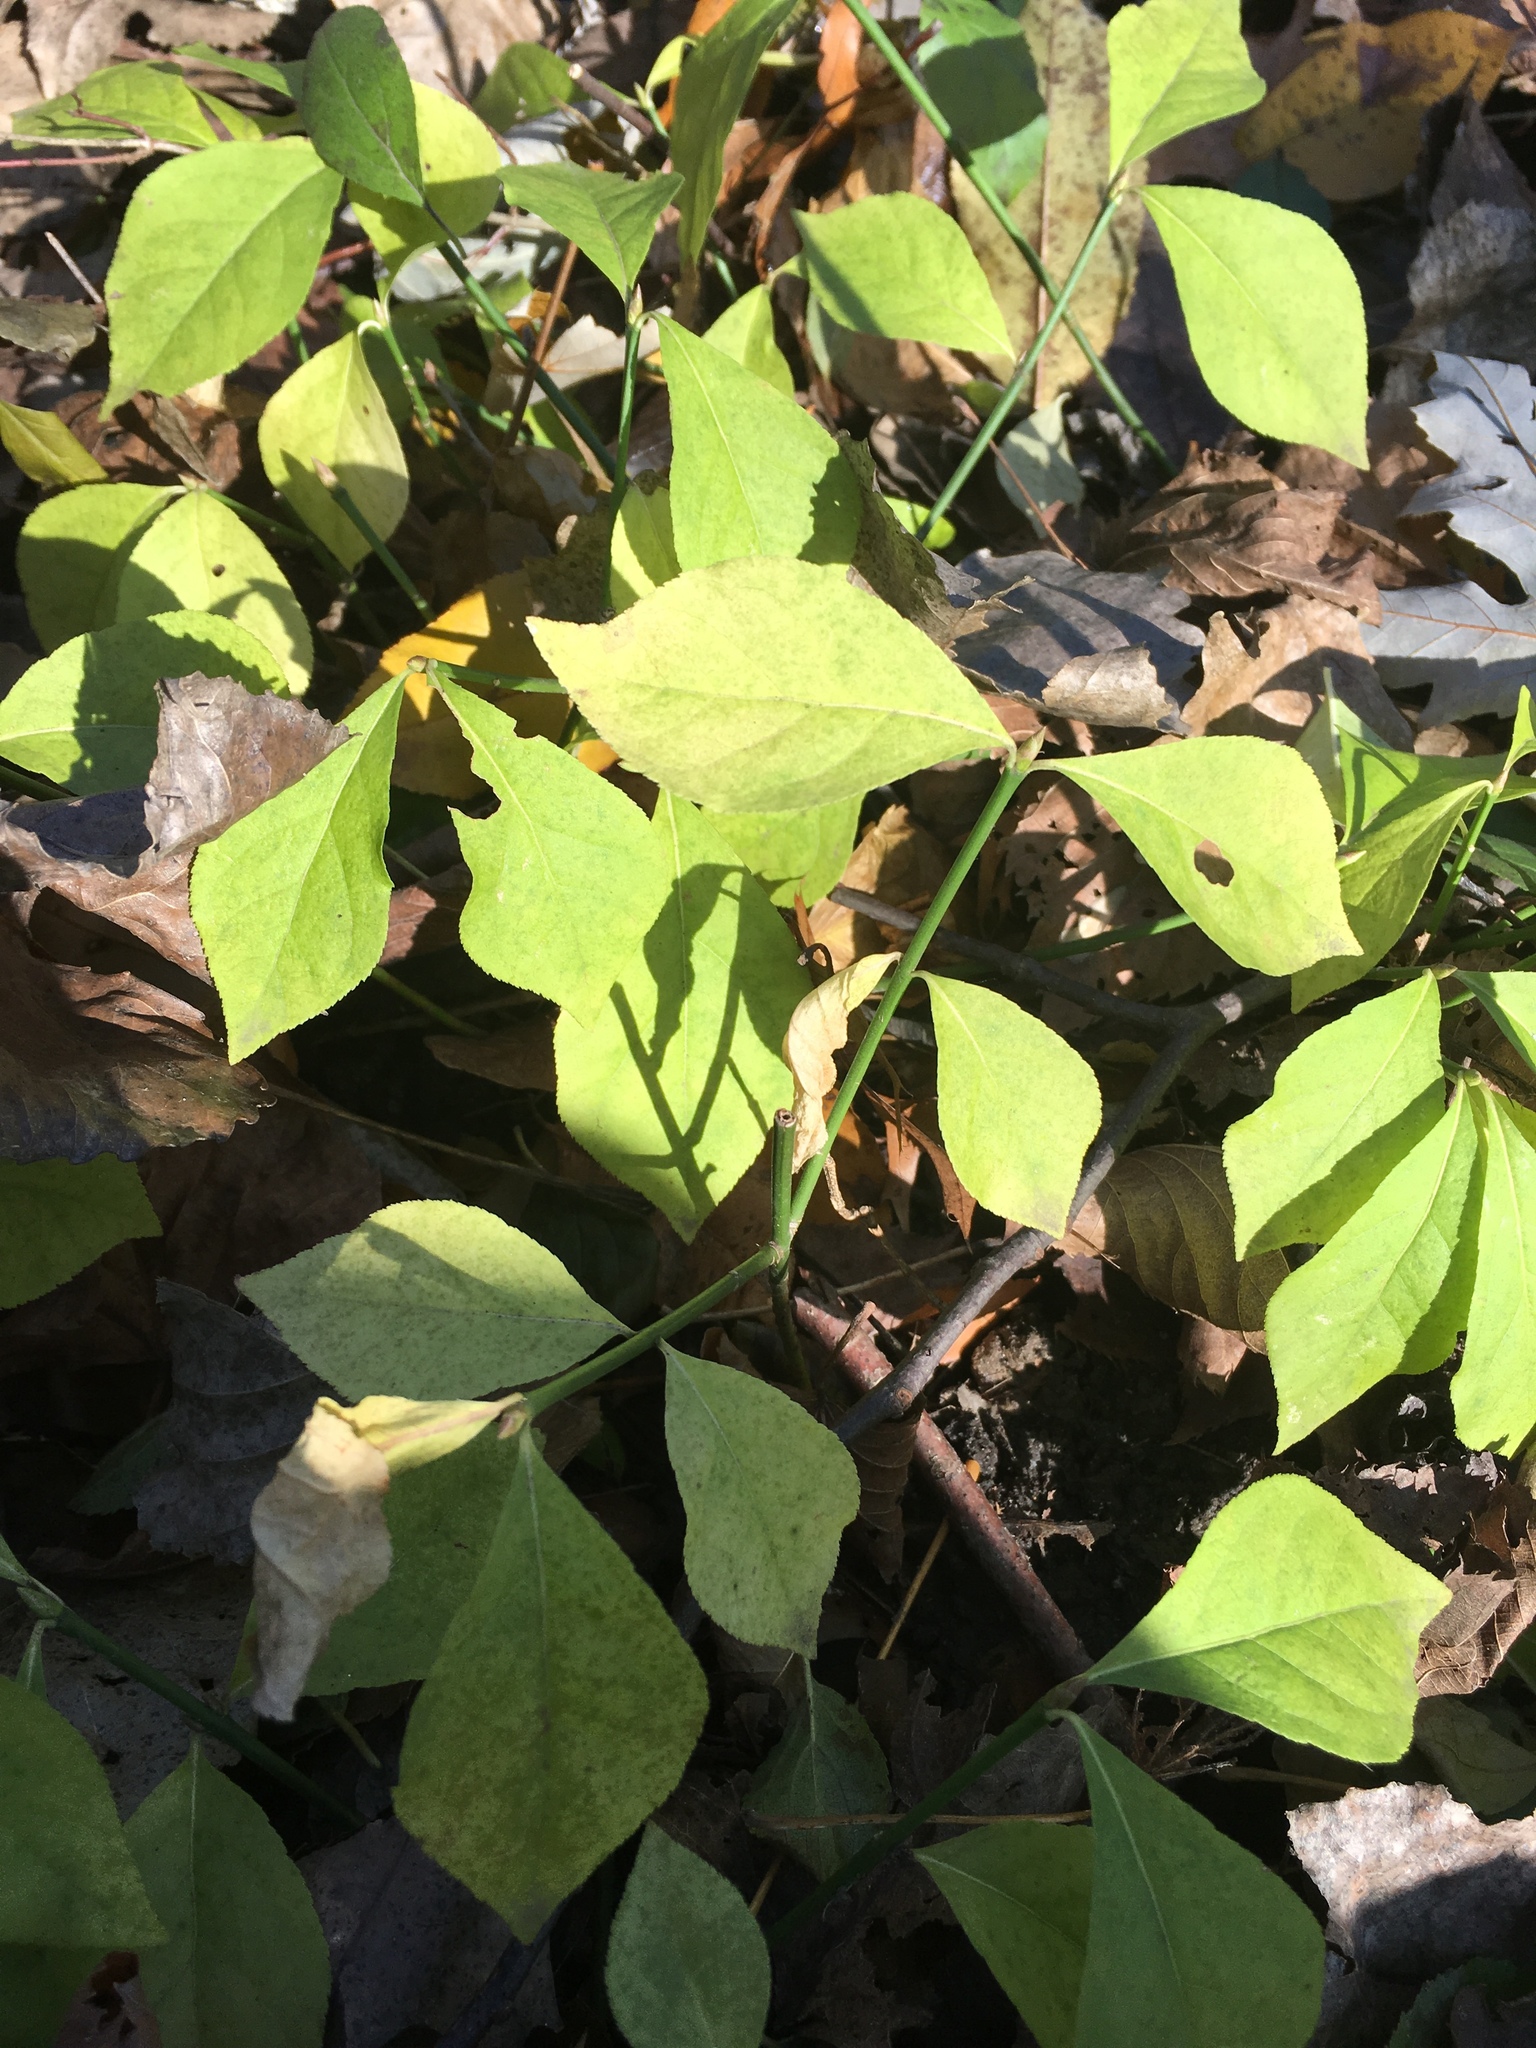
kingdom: Plantae
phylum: Tracheophyta
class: Magnoliopsida
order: Celastrales
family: Celastraceae
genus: Euonymus
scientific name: Euonymus obovatus
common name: Running strawberry-bush
